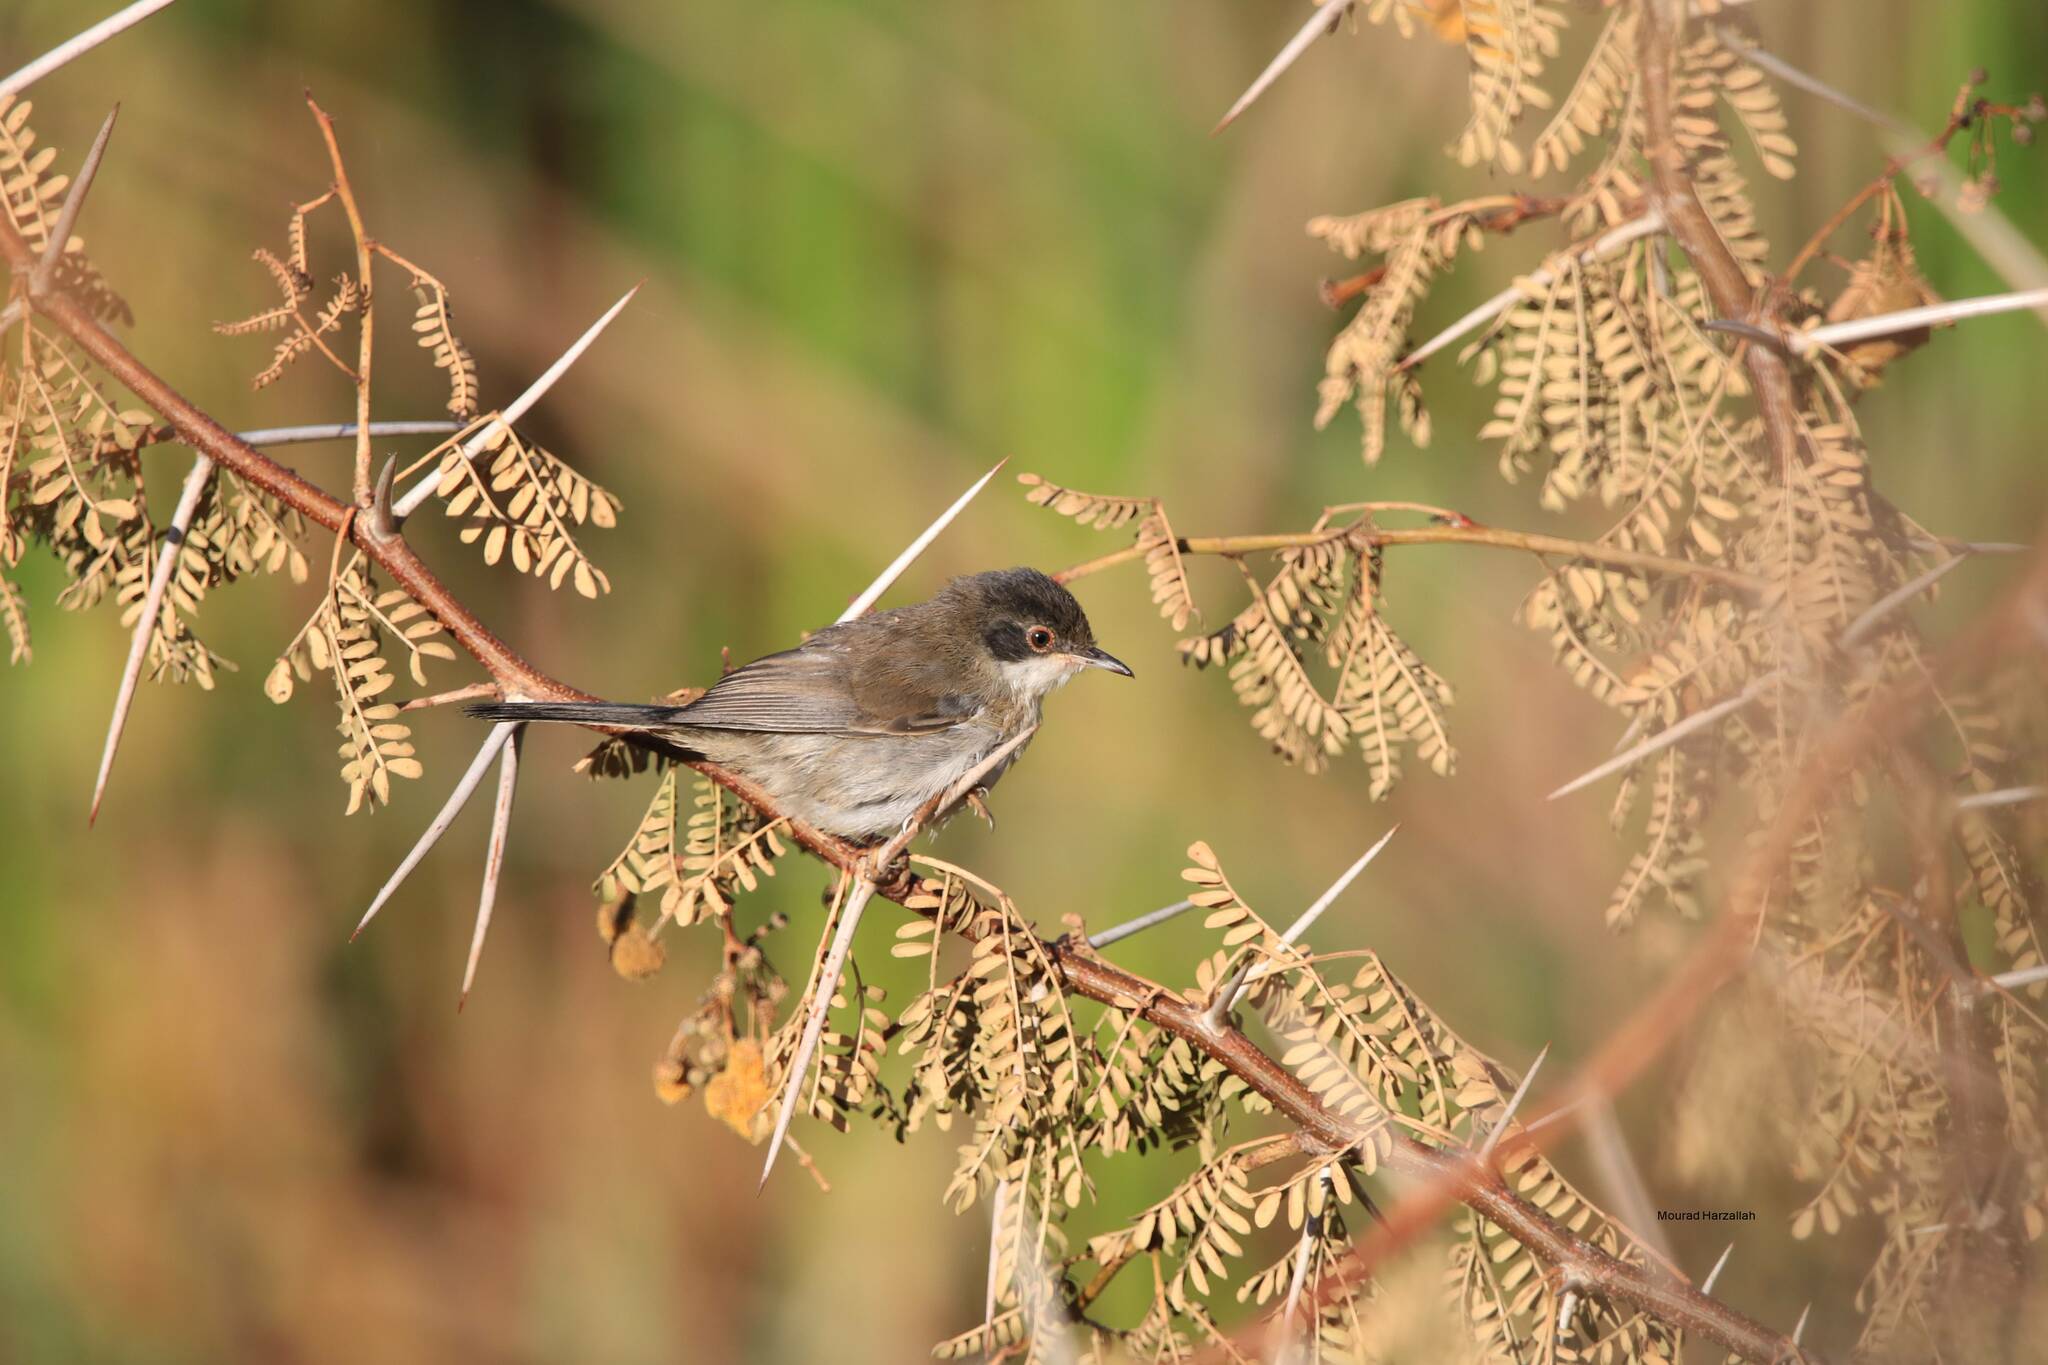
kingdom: Animalia
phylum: Chordata
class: Aves
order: Passeriformes
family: Sylviidae
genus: Curruca
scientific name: Curruca melanocephala
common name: Sardinian warbler
